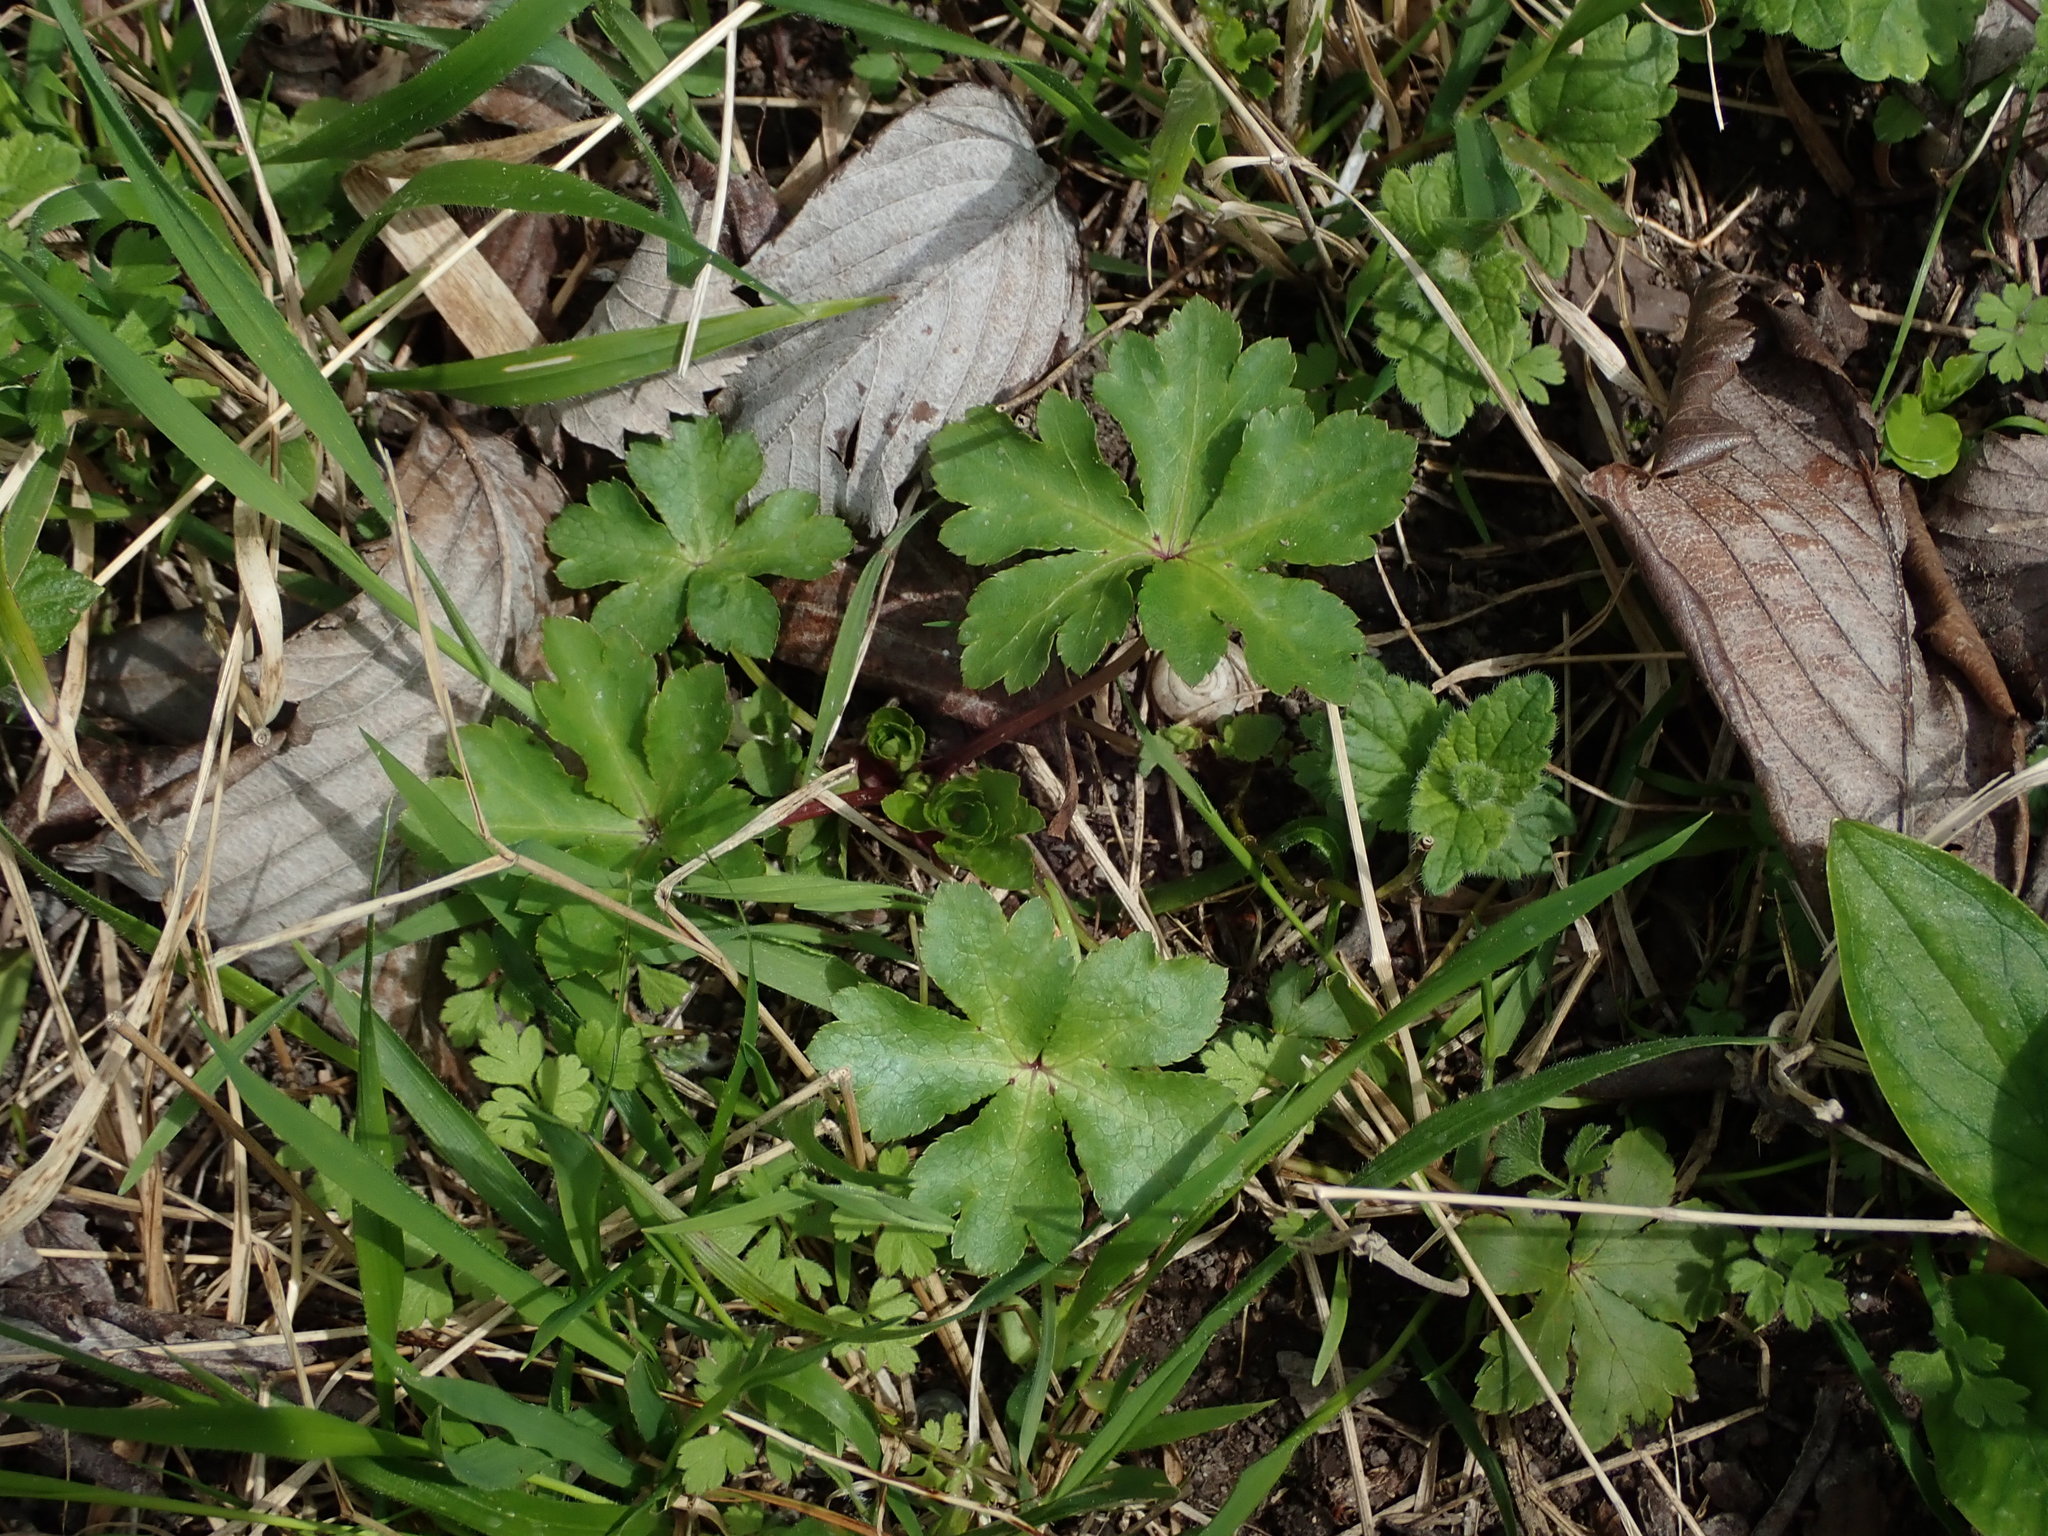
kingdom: Plantae
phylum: Tracheophyta
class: Magnoliopsida
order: Apiales
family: Apiaceae
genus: Sanicula
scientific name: Sanicula europaea
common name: Sanicle
